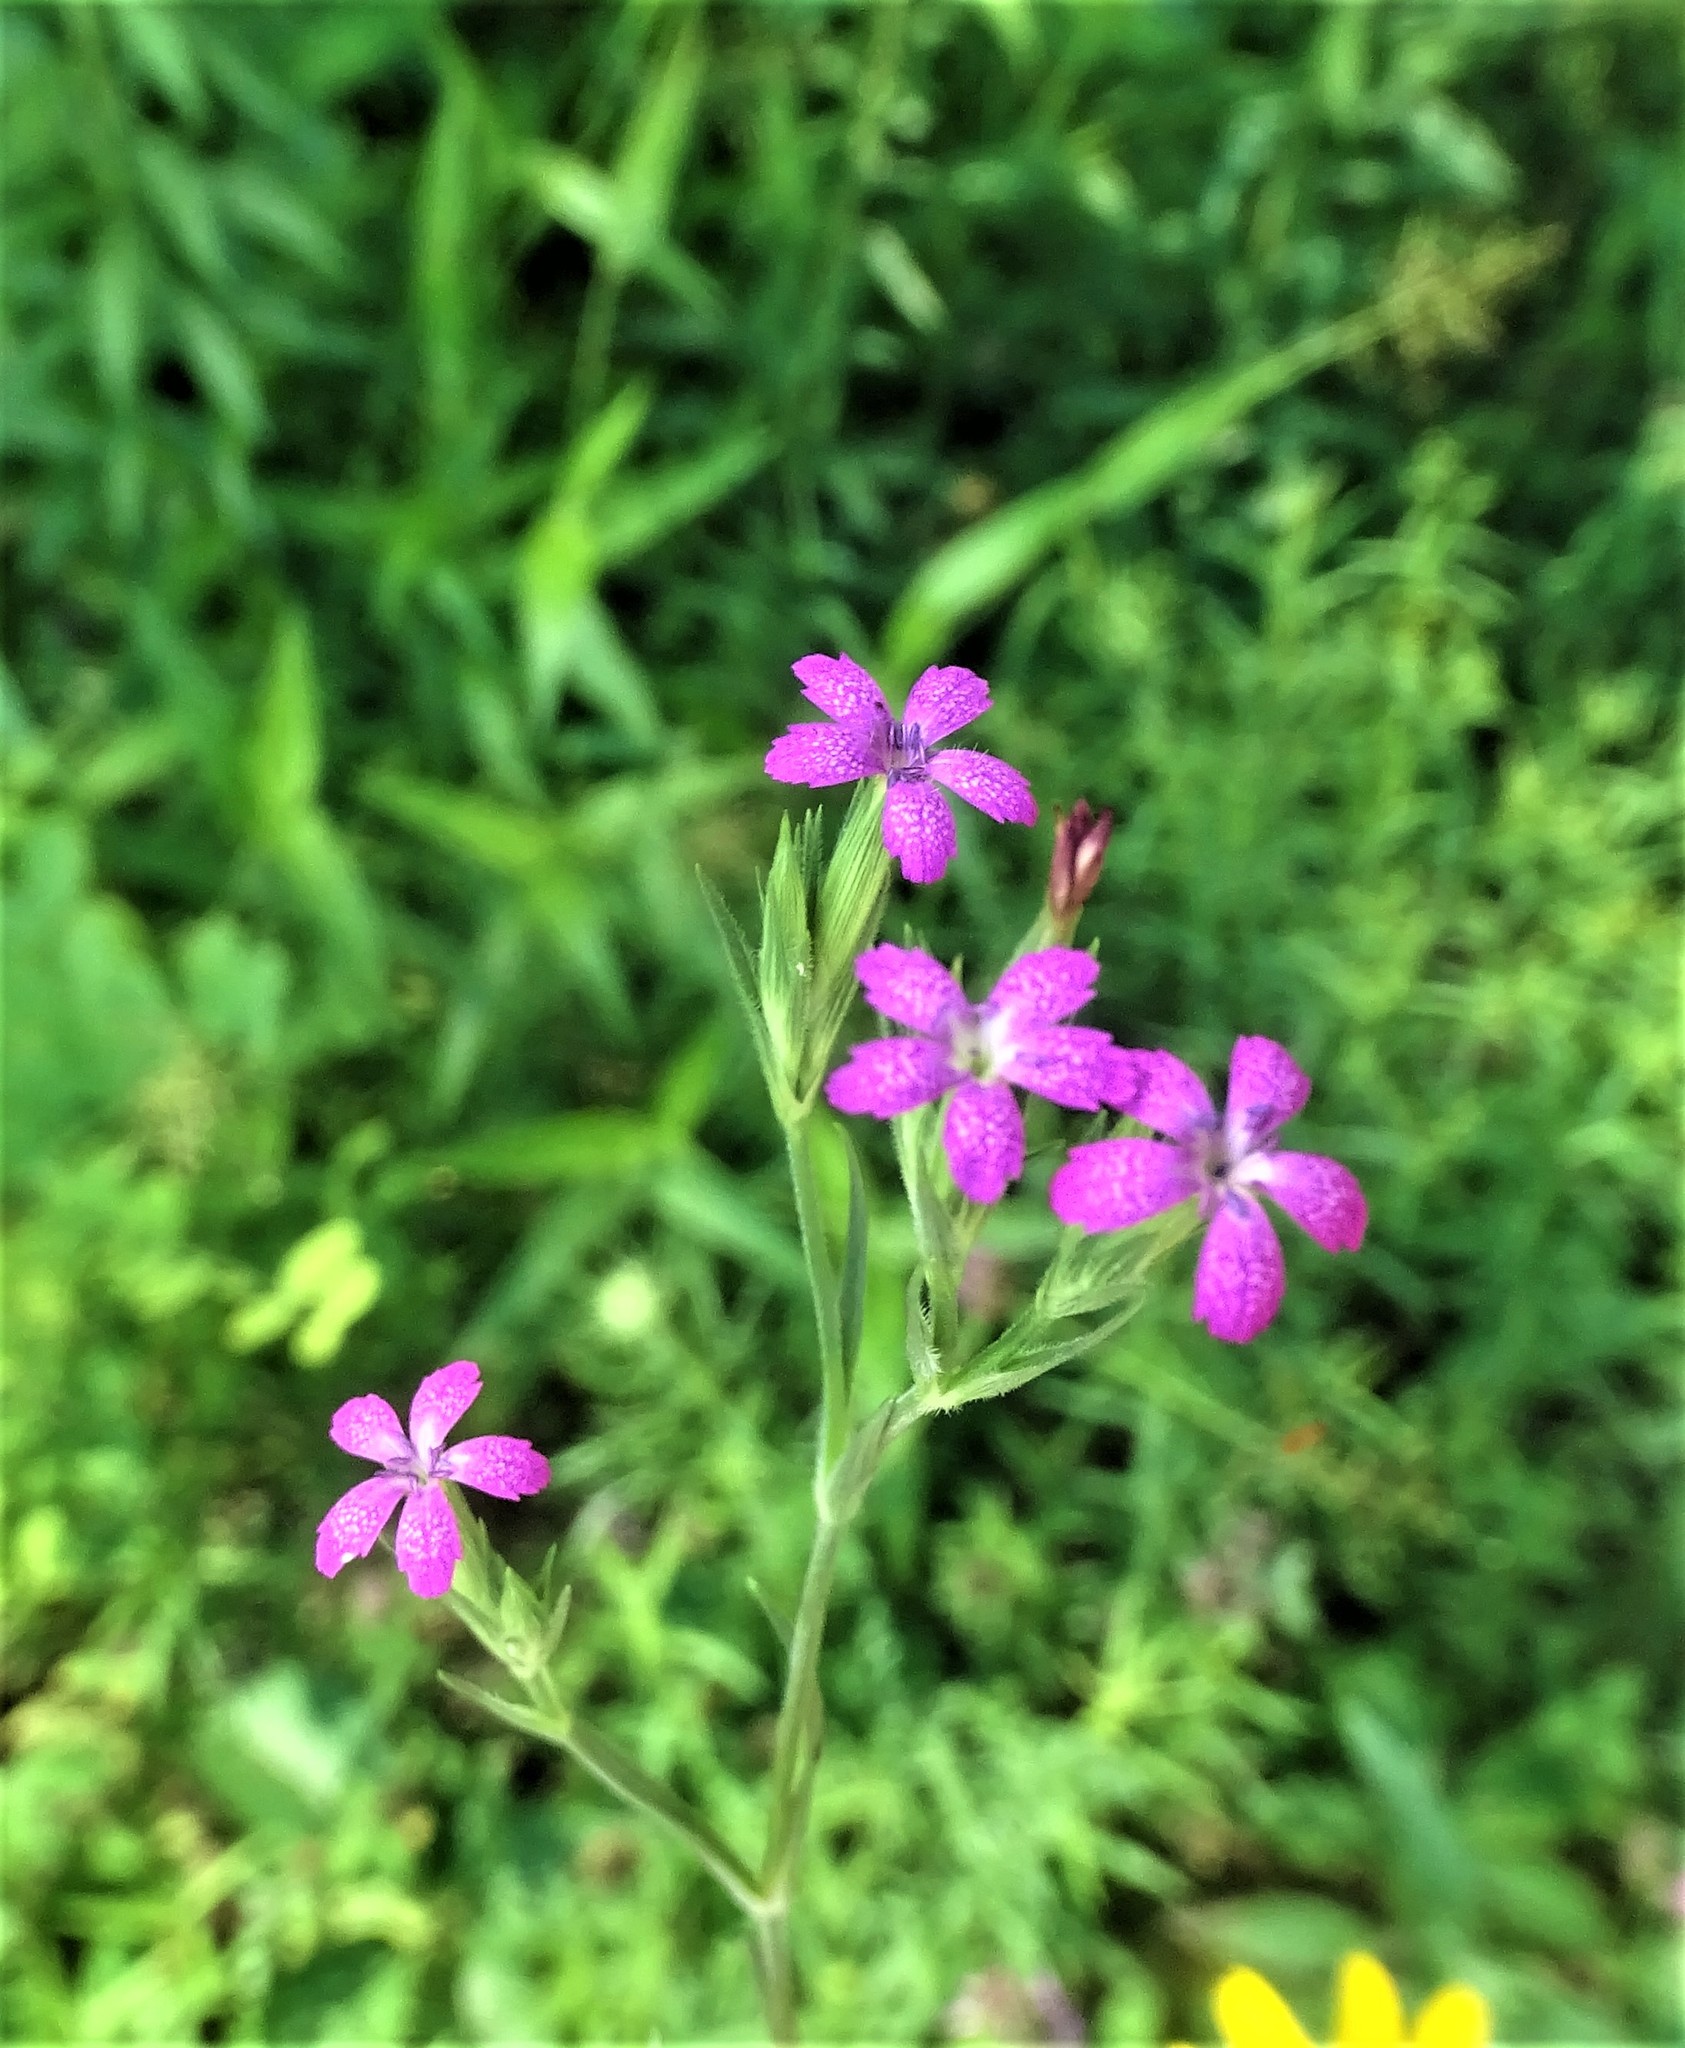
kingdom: Plantae
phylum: Tracheophyta
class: Magnoliopsida
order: Caryophyllales
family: Caryophyllaceae
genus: Dianthus
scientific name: Dianthus armeria
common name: Deptford pink
